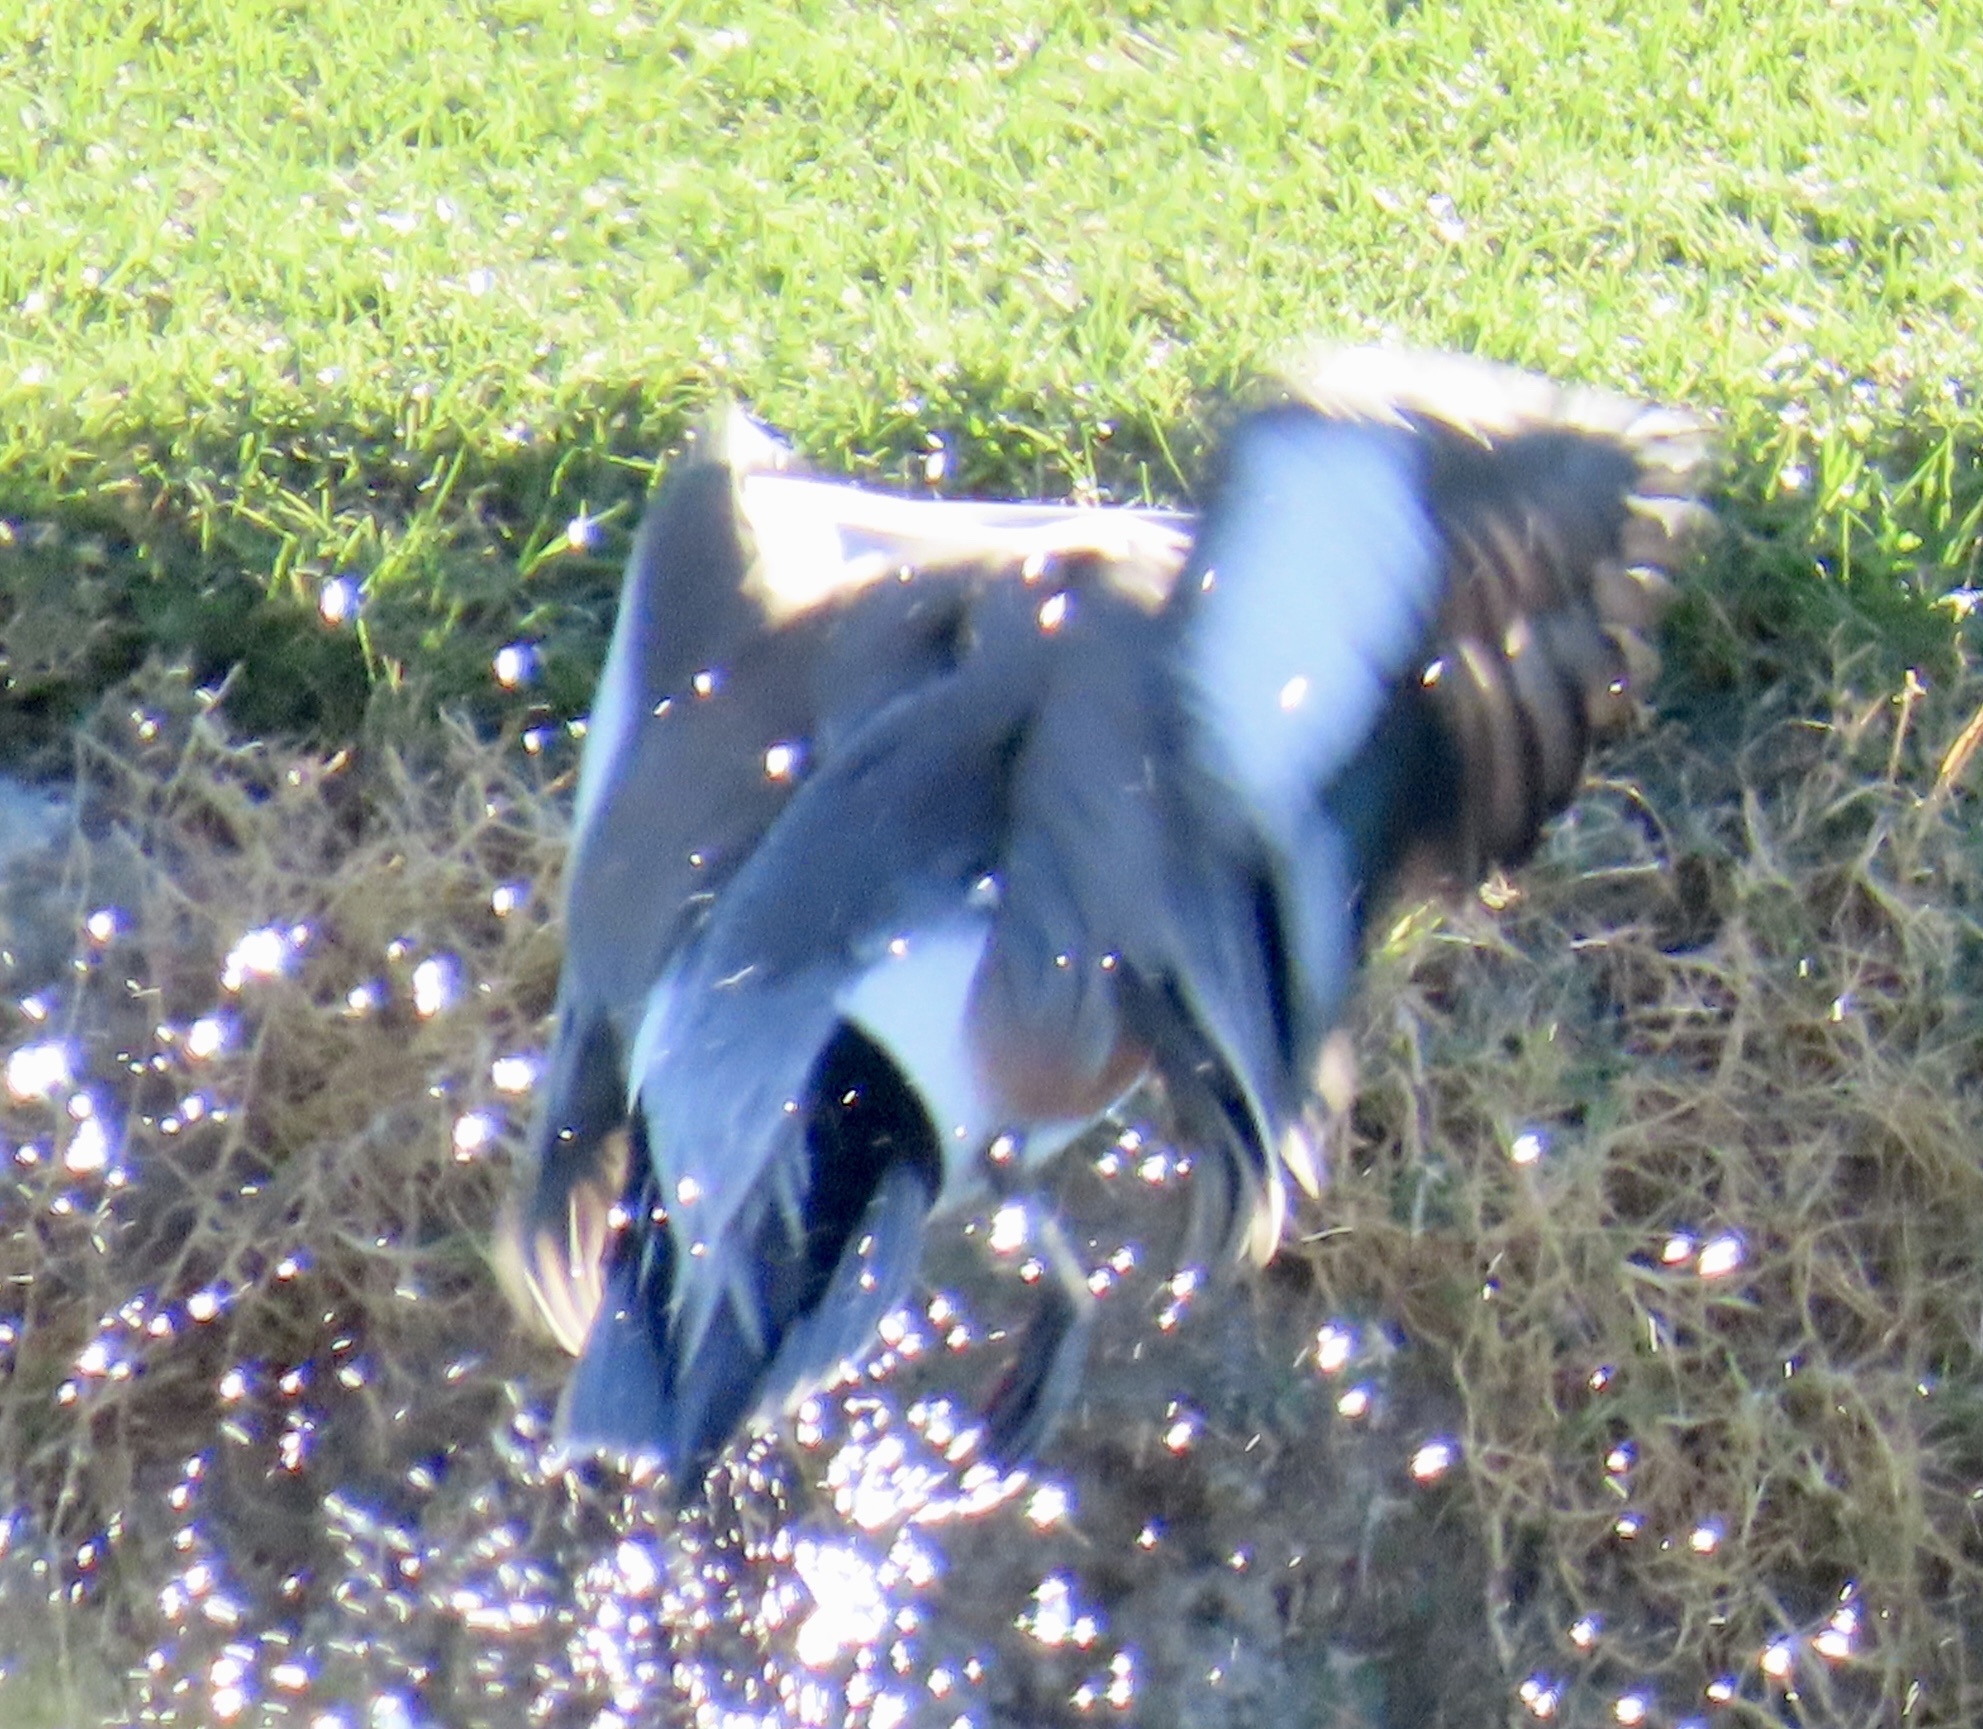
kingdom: Animalia
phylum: Chordata
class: Aves
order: Anseriformes
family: Anatidae
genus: Mareca
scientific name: Mareca americana
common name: American wigeon
